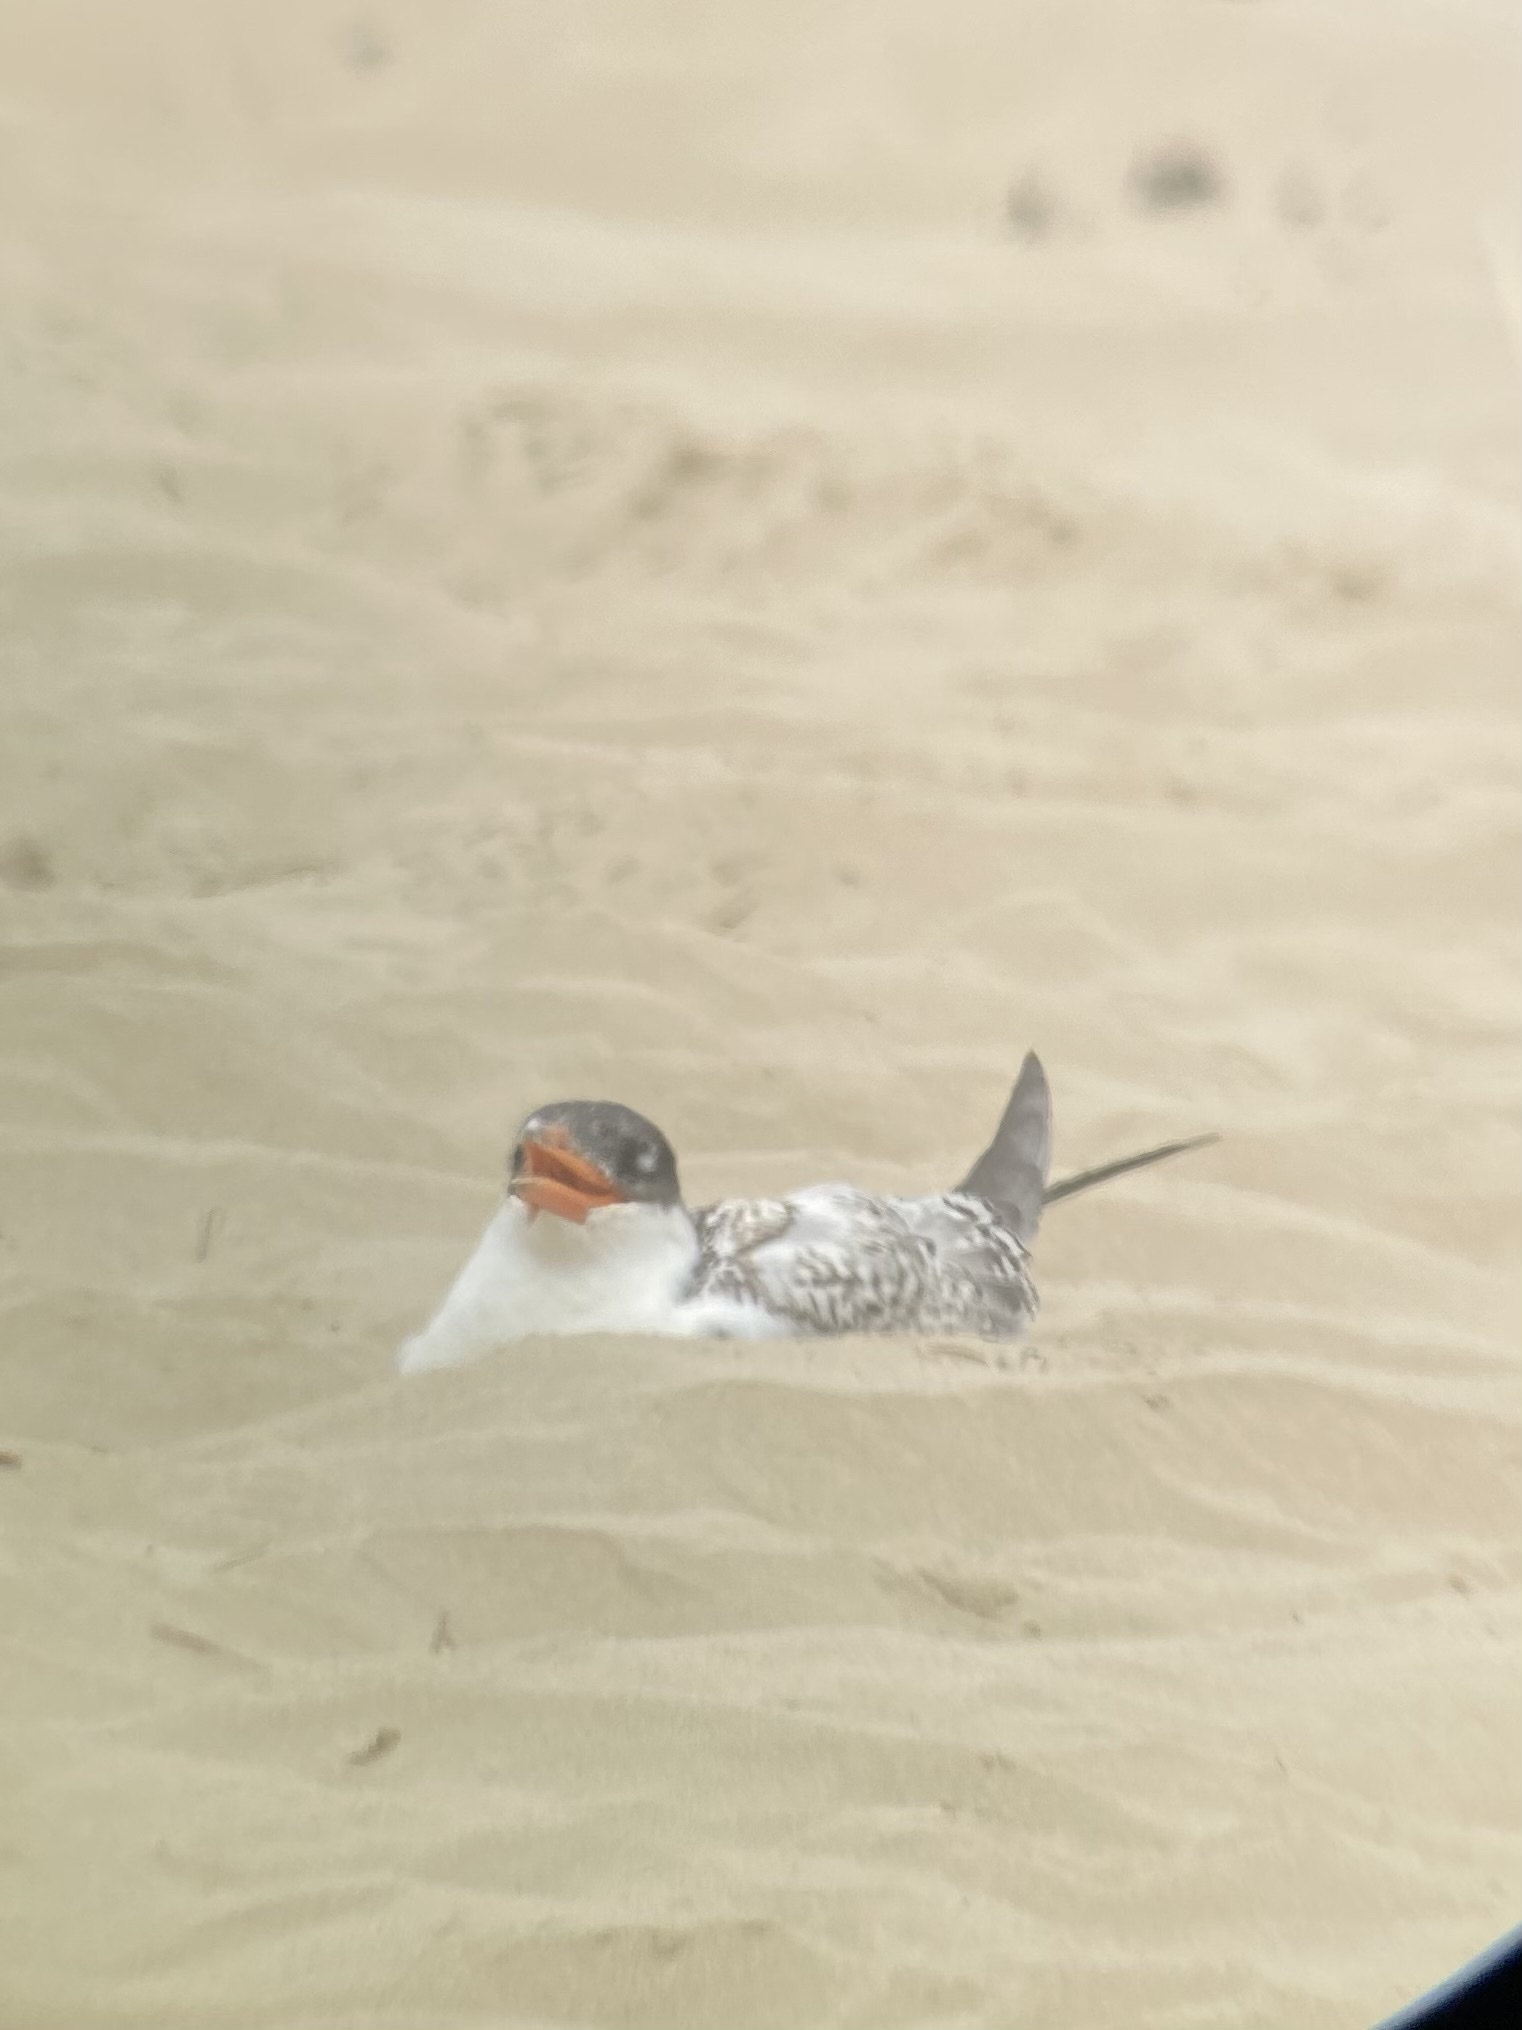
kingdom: Animalia
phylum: Chordata
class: Aves
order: Charadriiformes
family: Laridae
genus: Hydroprogne
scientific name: Hydroprogne caspia
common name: Caspian tern
